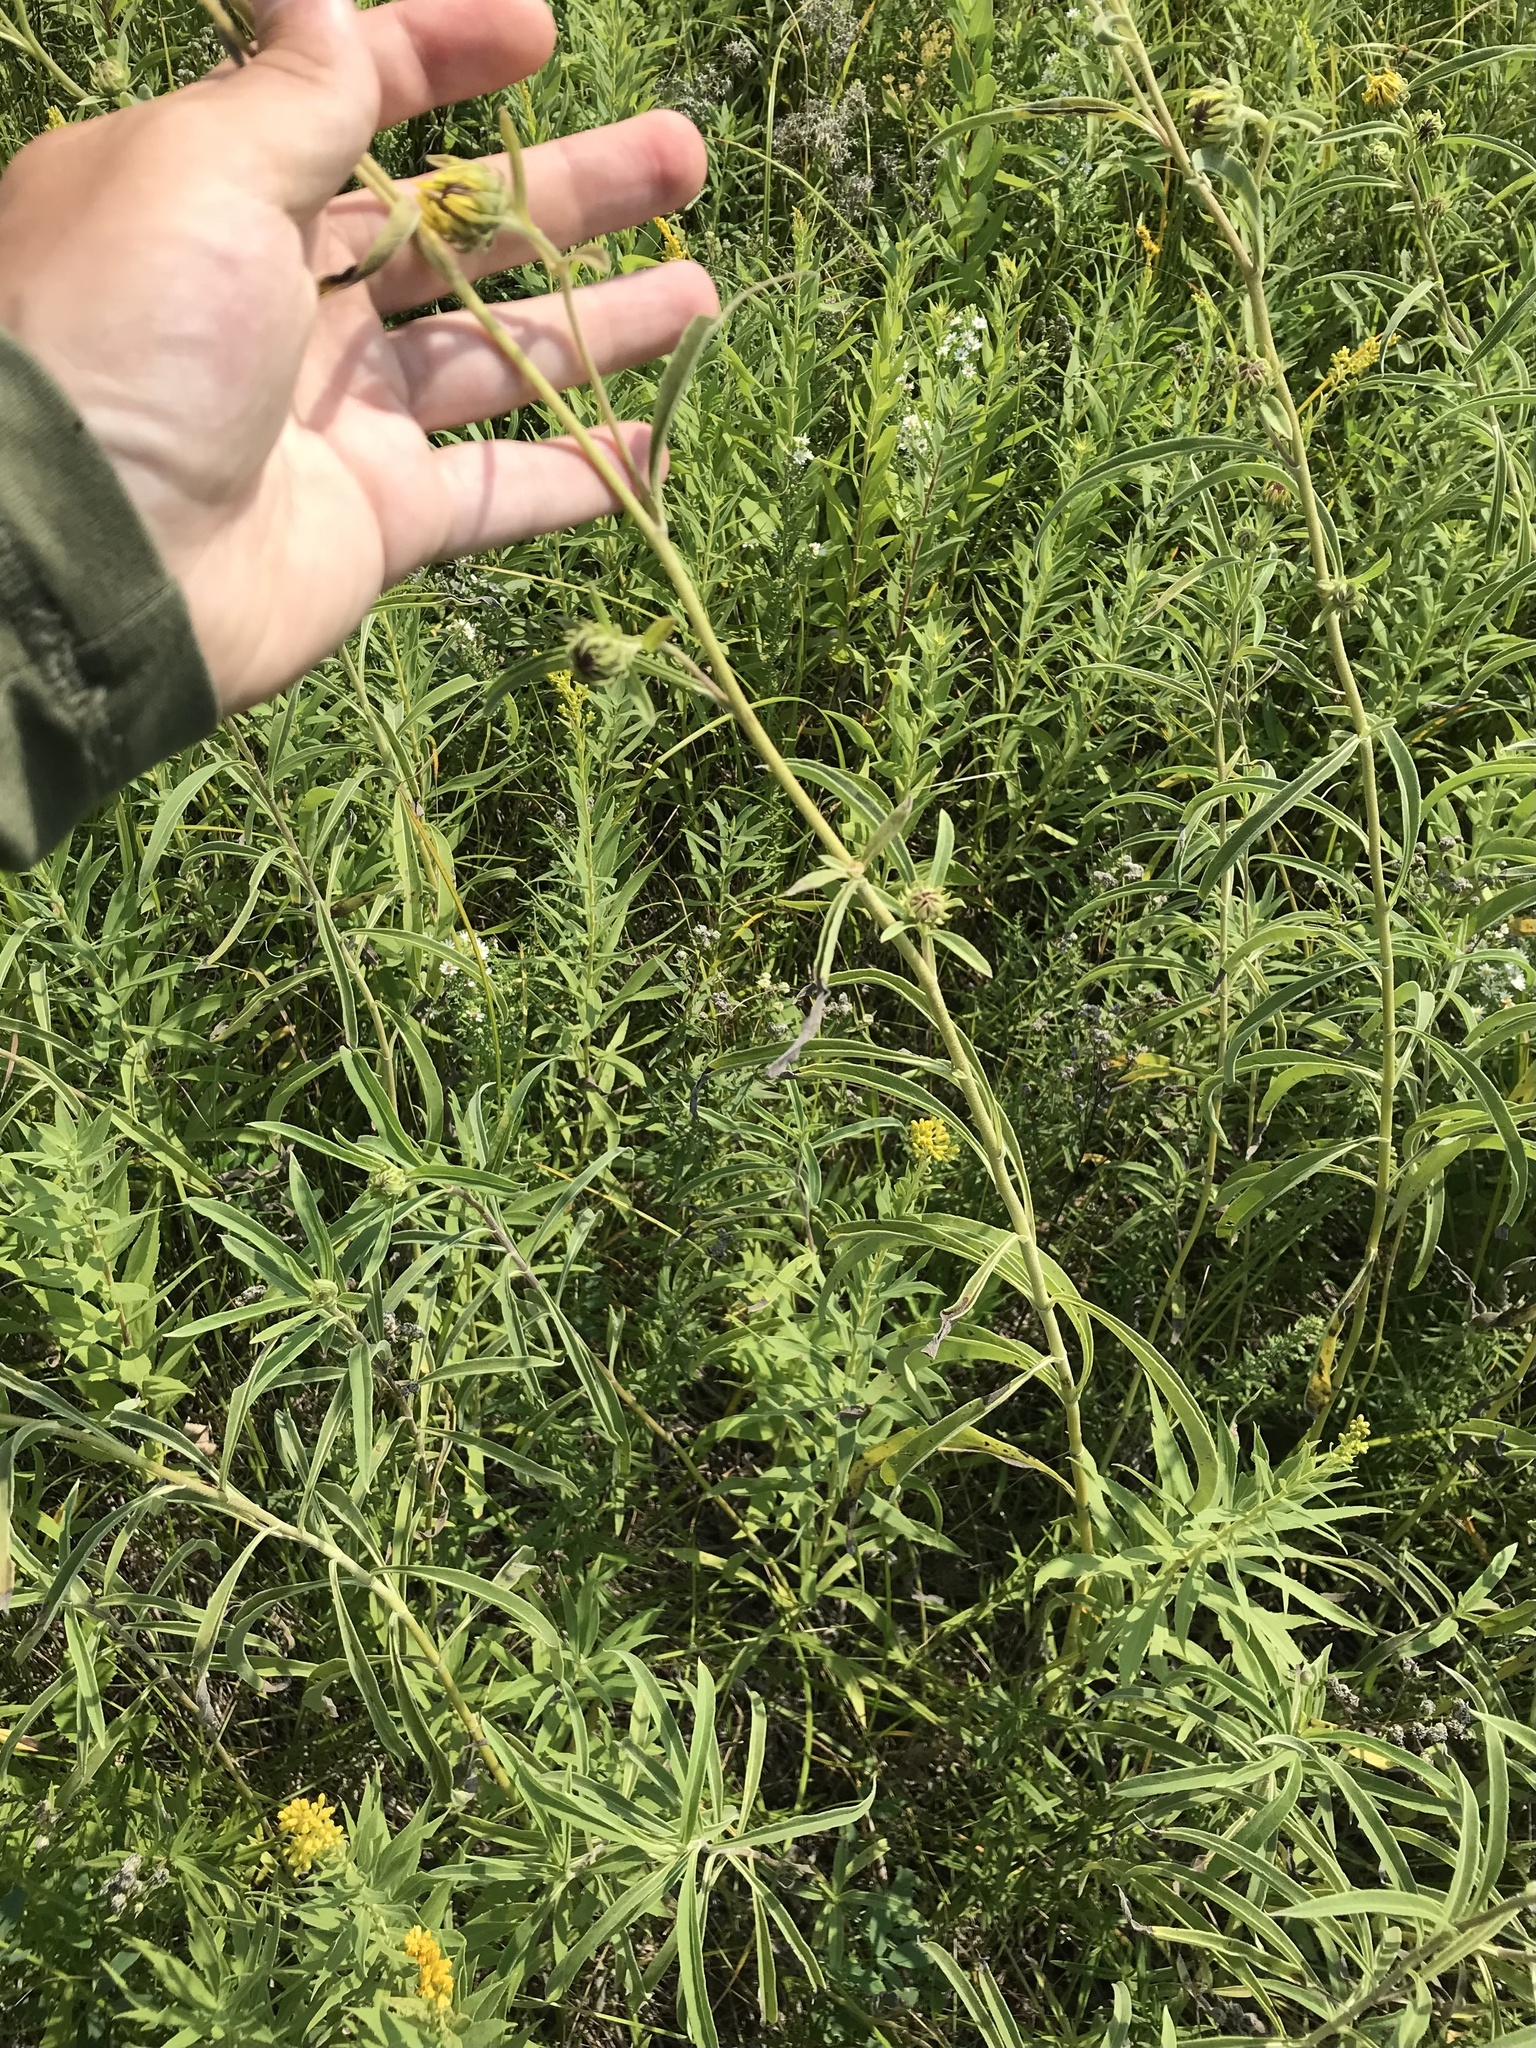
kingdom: Plantae
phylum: Tracheophyta
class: Magnoliopsida
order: Asterales
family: Asteraceae
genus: Helianthus
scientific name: Helianthus maximiliani
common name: Maximilian's sunflower
